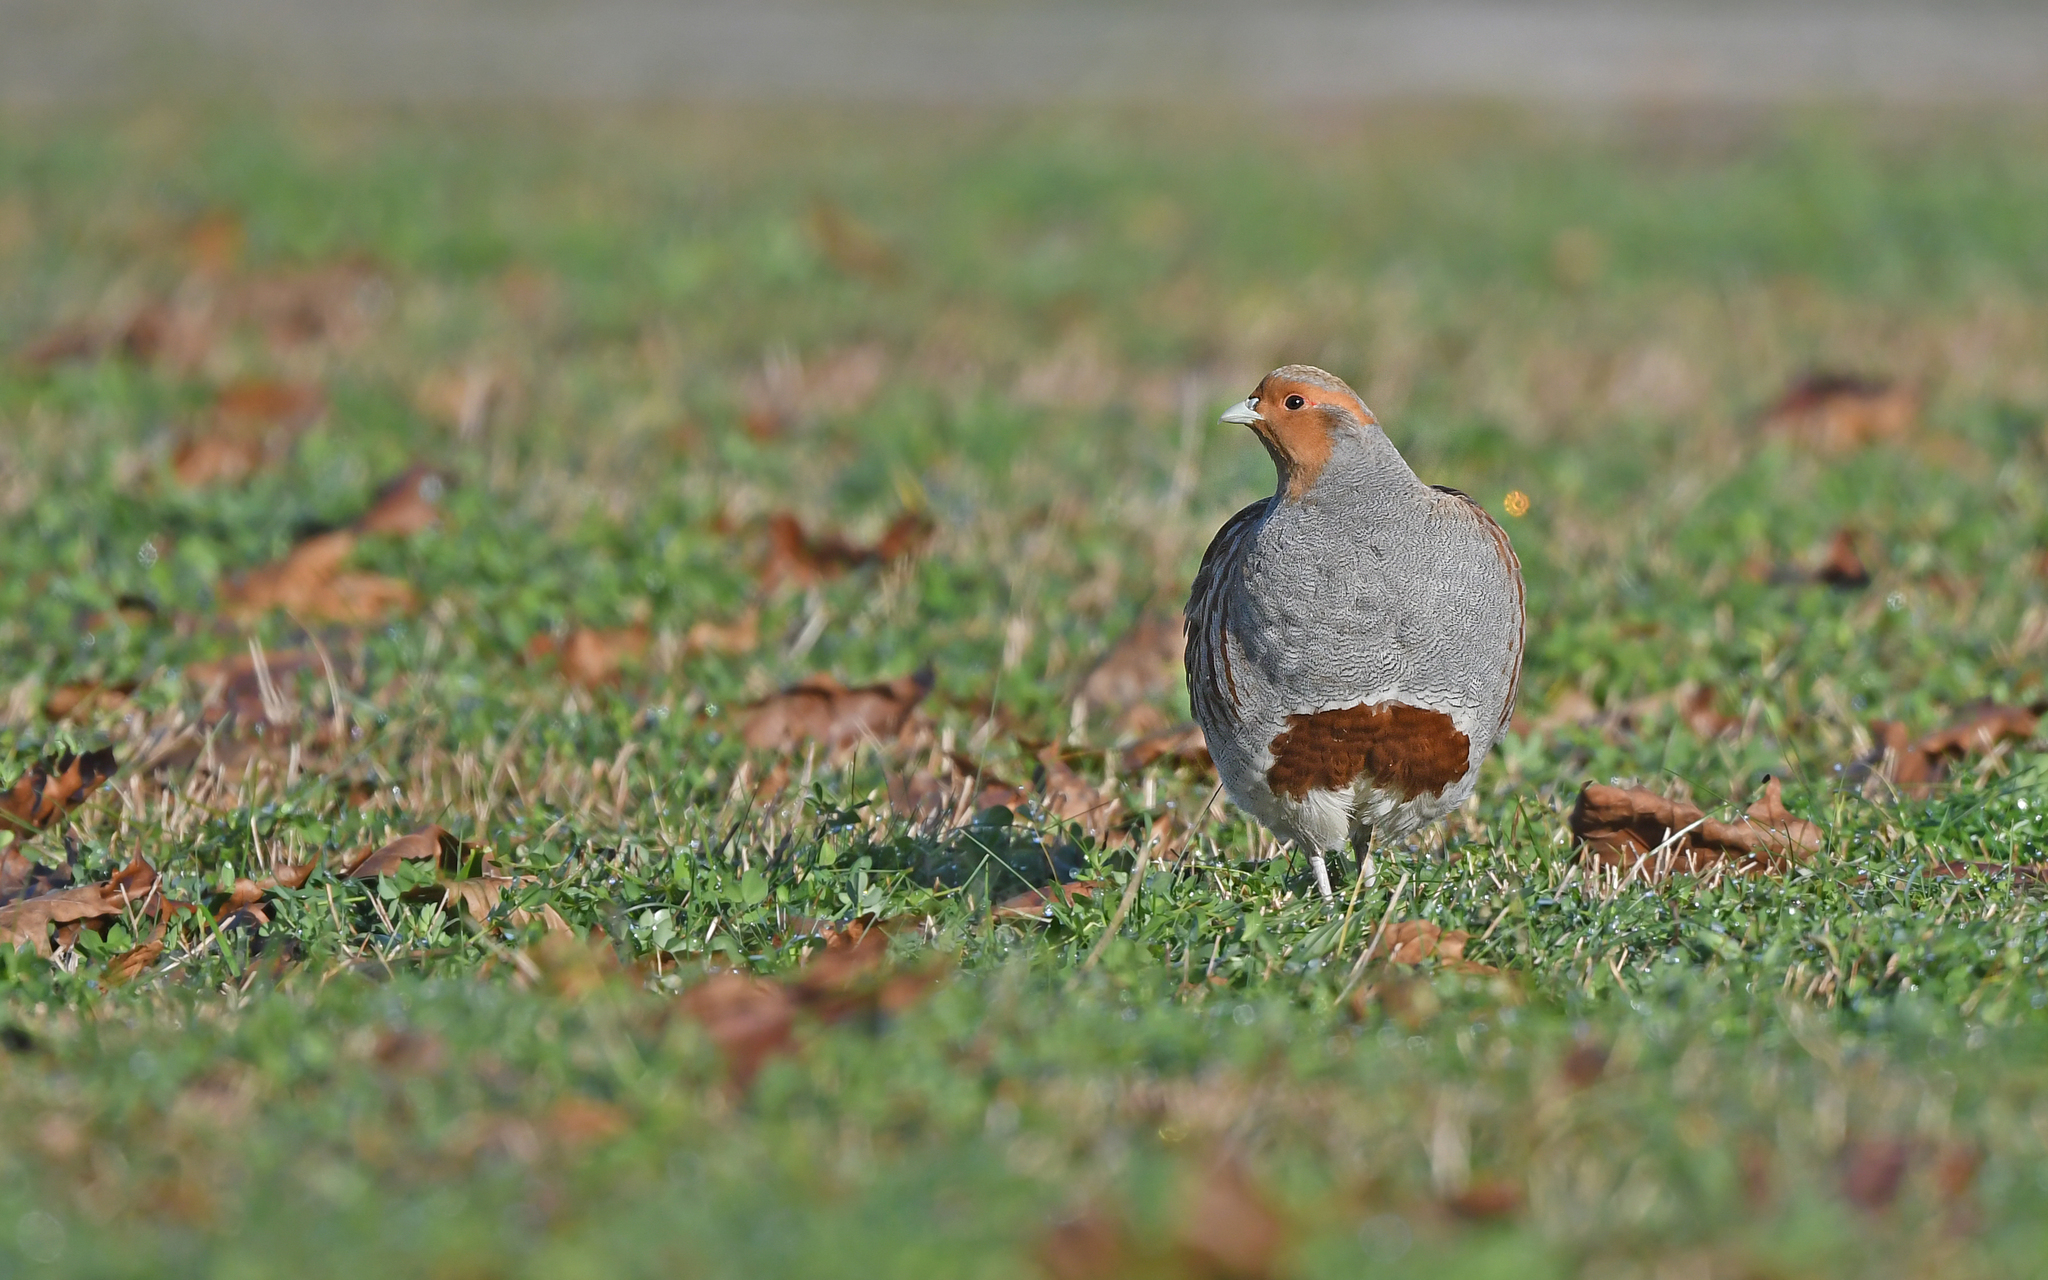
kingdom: Animalia
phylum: Chordata
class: Aves
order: Galliformes
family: Phasianidae
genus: Perdix
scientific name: Perdix perdix
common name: Grey partridge
